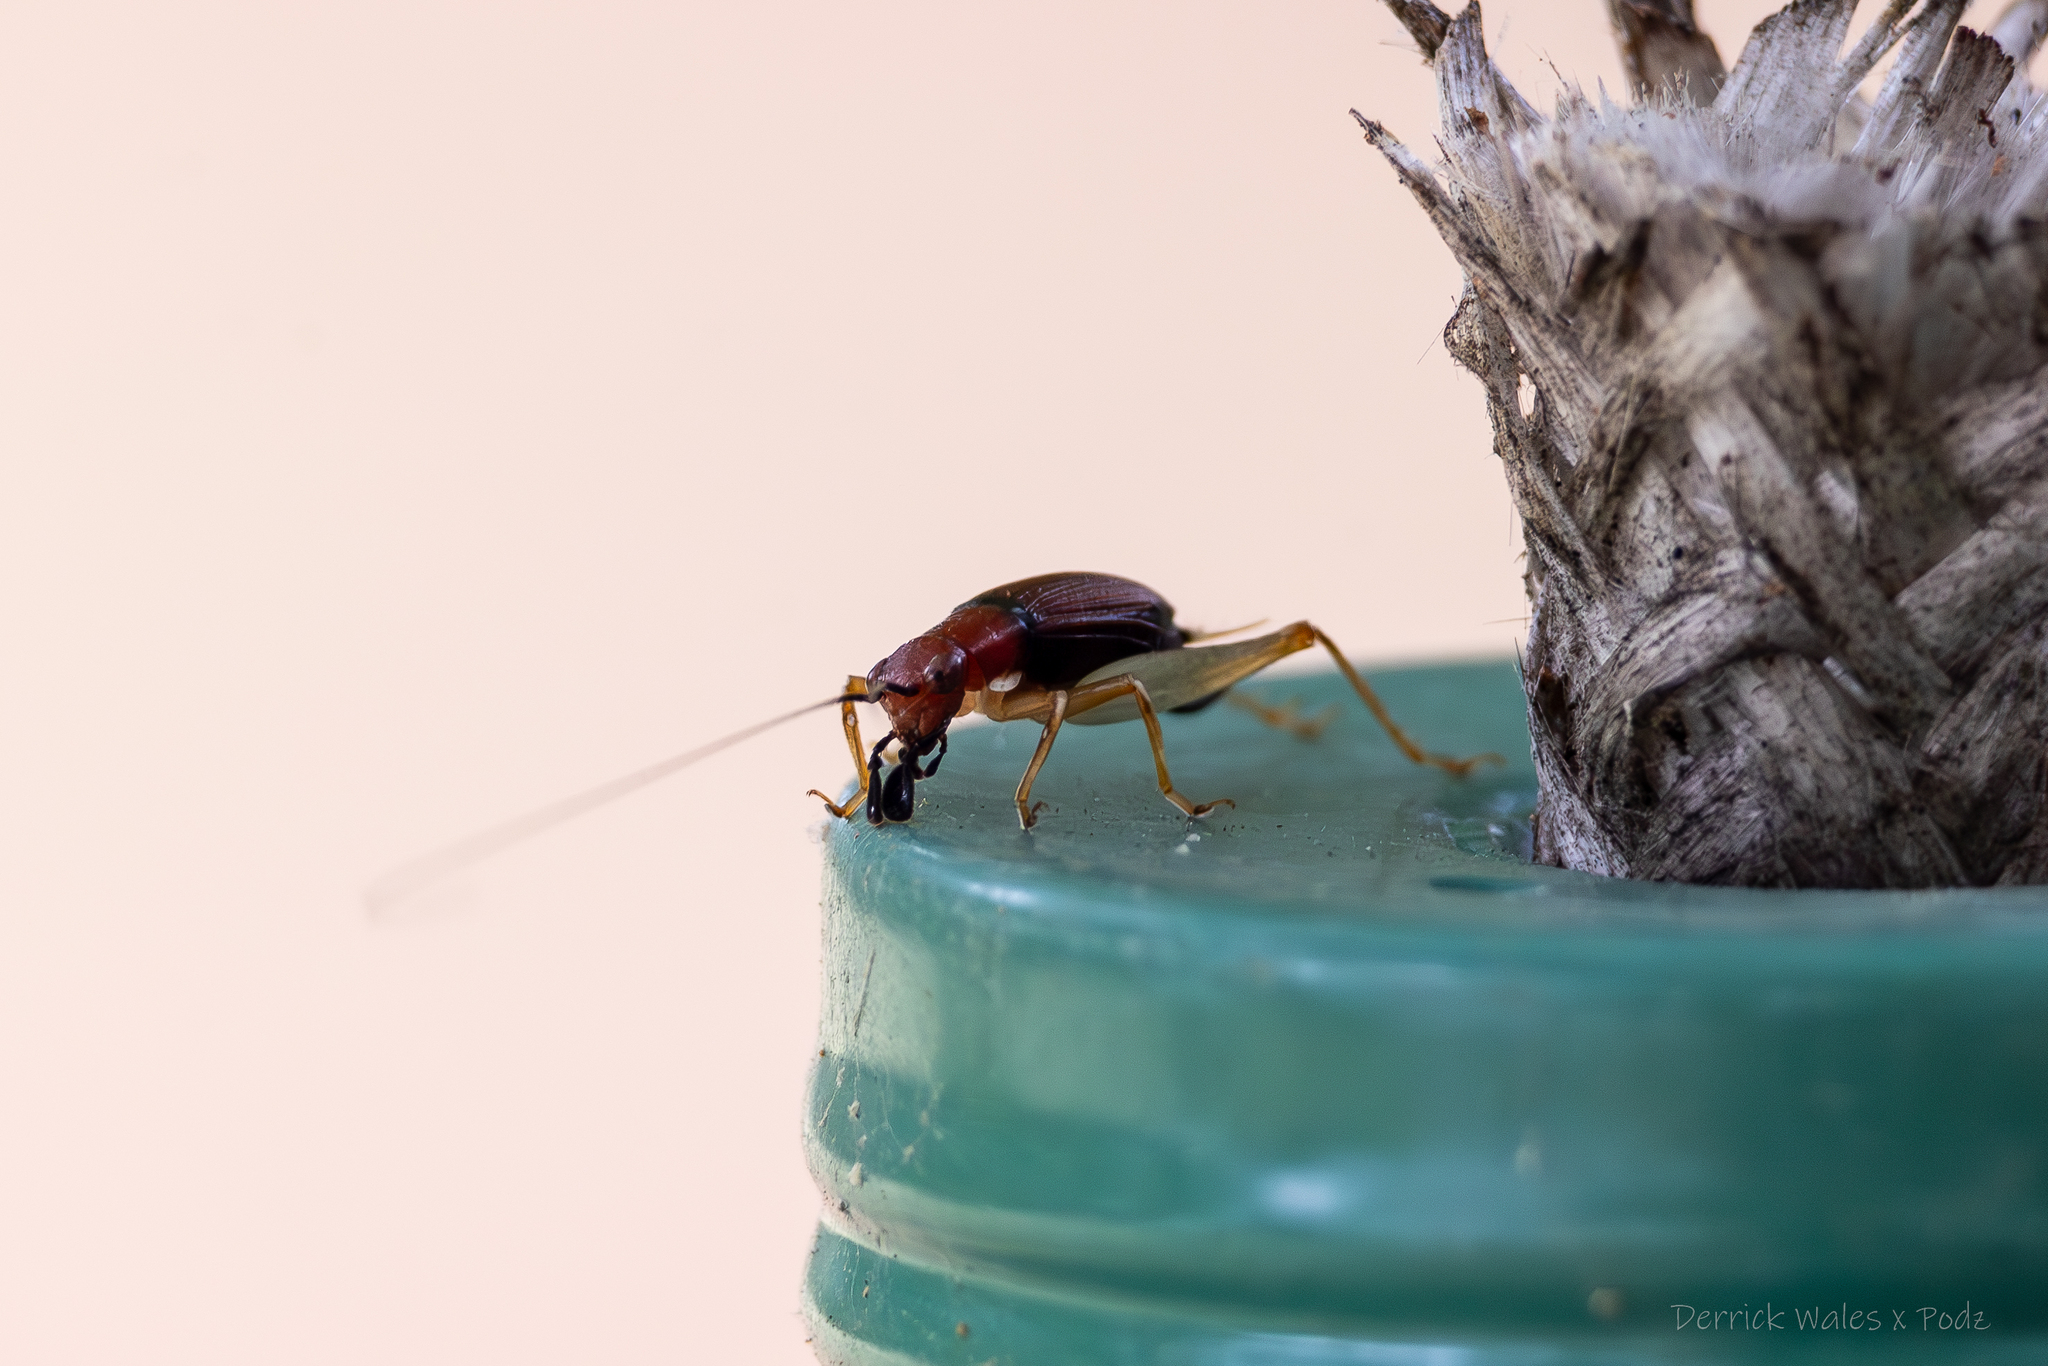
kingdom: Animalia
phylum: Arthropoda
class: Insecta
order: Orthoptera
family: Trigonidiidae
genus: Phyllopalpus
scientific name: Phyllopalpus pulchellus
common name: Handsome trig
